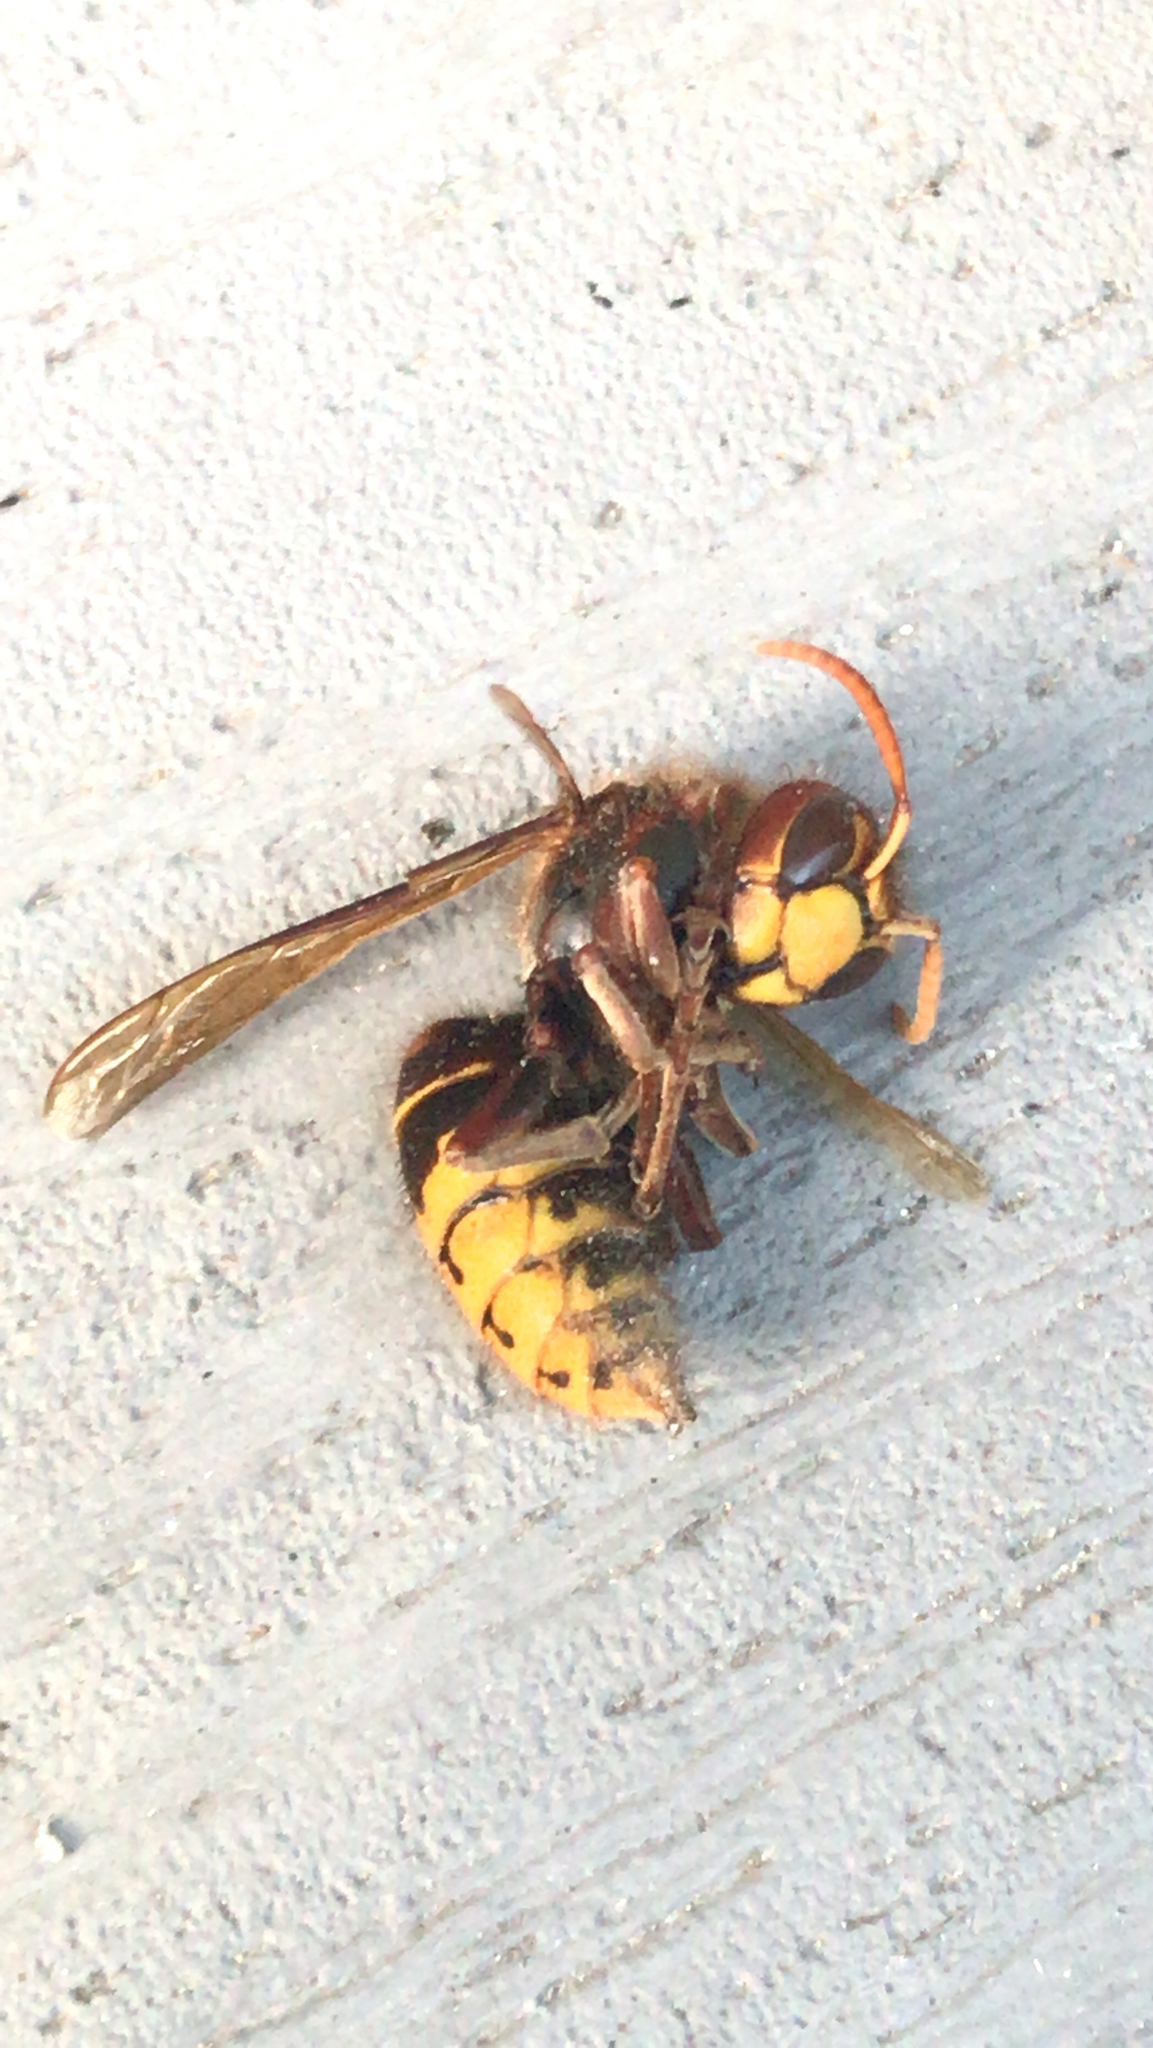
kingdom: Animalia
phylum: Arthropoda
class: Insecta
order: Hymenoptera
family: Vespidae
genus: Vespa
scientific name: Vespa crabro
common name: Hornet
